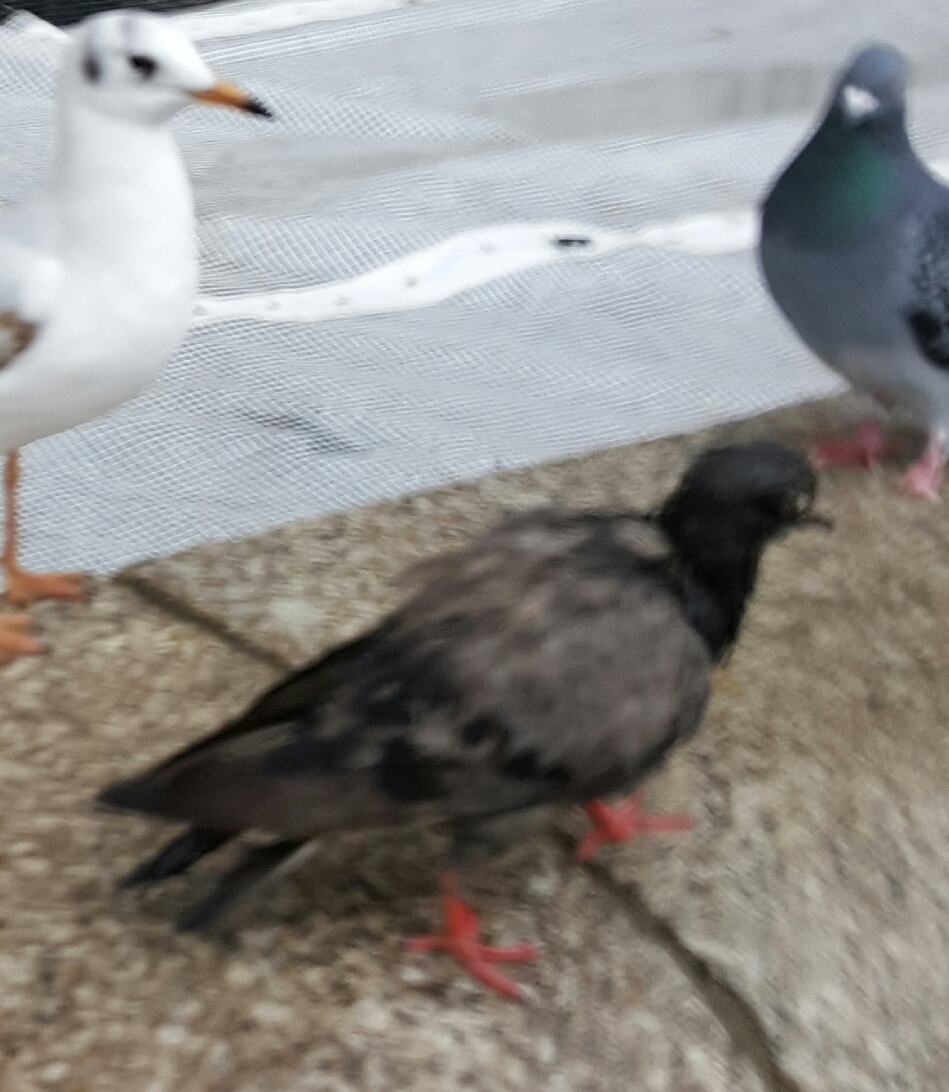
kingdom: Animalia
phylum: Chordata
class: Aves
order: Columbiformes
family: Columbidae
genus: Columba
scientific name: Columba livia
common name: Rock pigeon
